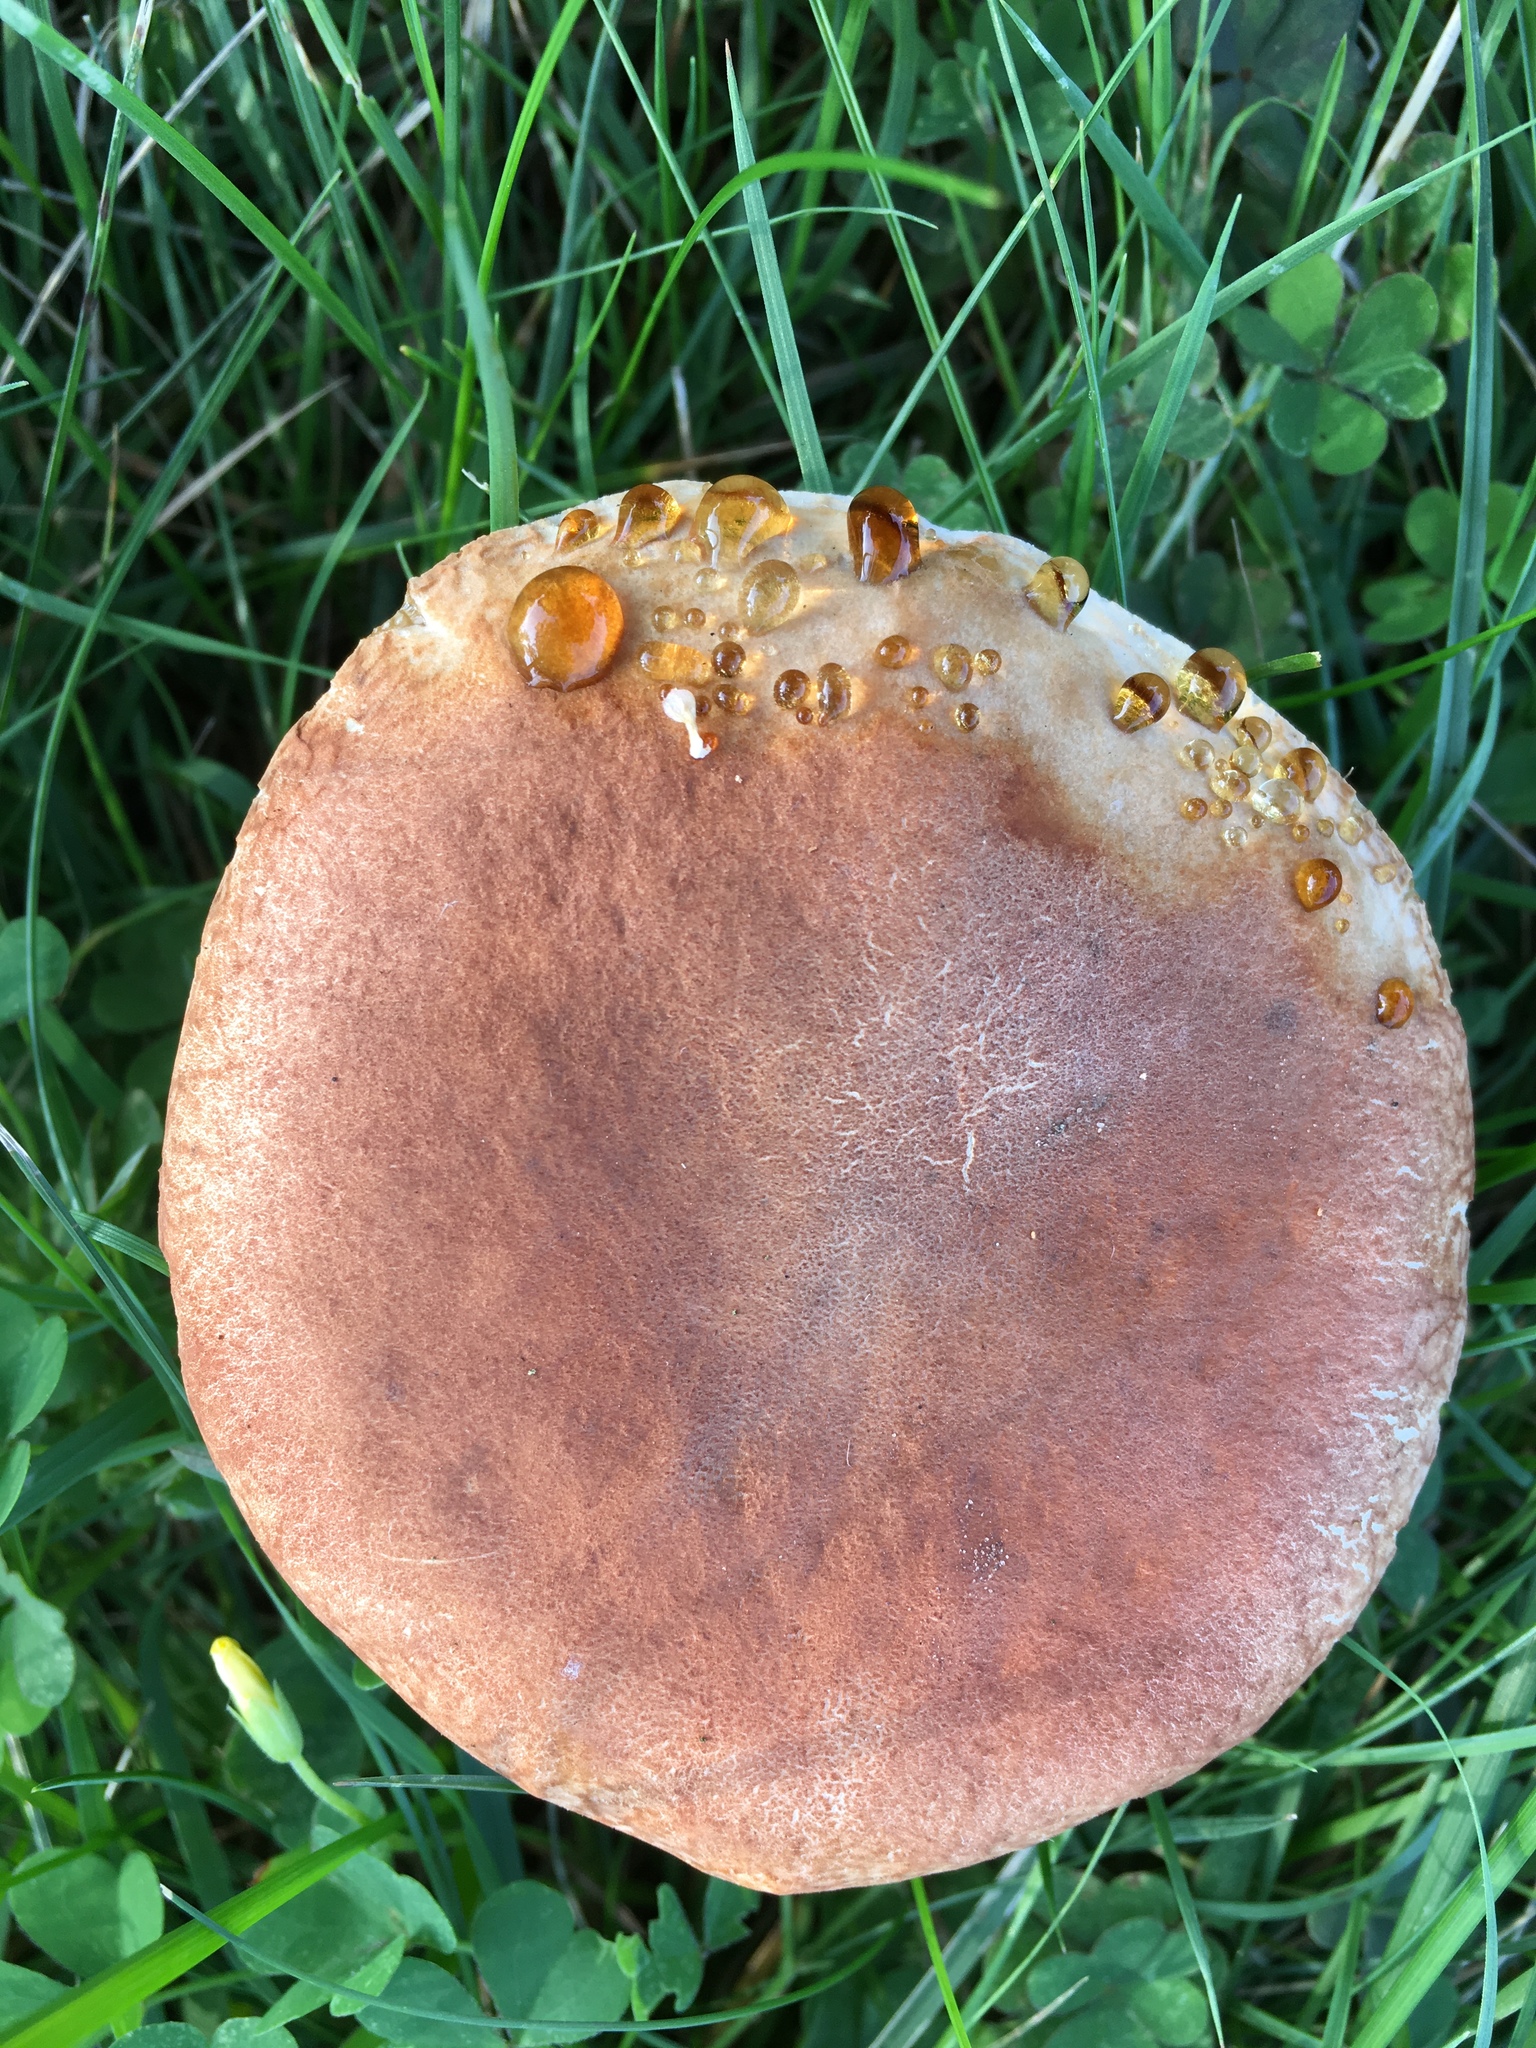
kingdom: Fungi
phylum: Basidiomycota
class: Agaricomycetes
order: Boletales
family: Gyroporaceae
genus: Gyroporus
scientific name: Gyroporus castaneus
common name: Chestnut bolete
